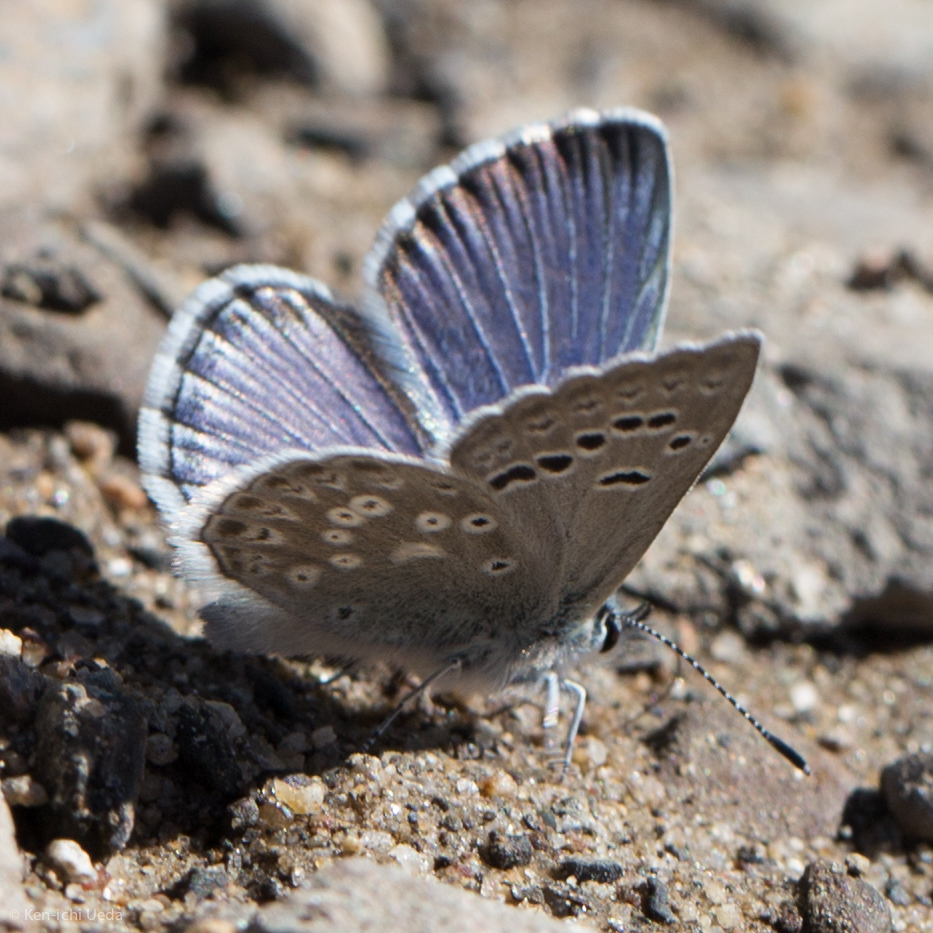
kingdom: Animalia
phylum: Arthropoda
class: Insecta
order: Lepidoptera
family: Lycaenidae
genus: Icaricia
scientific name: Icaricia icarioides
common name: Boisduval's blue
